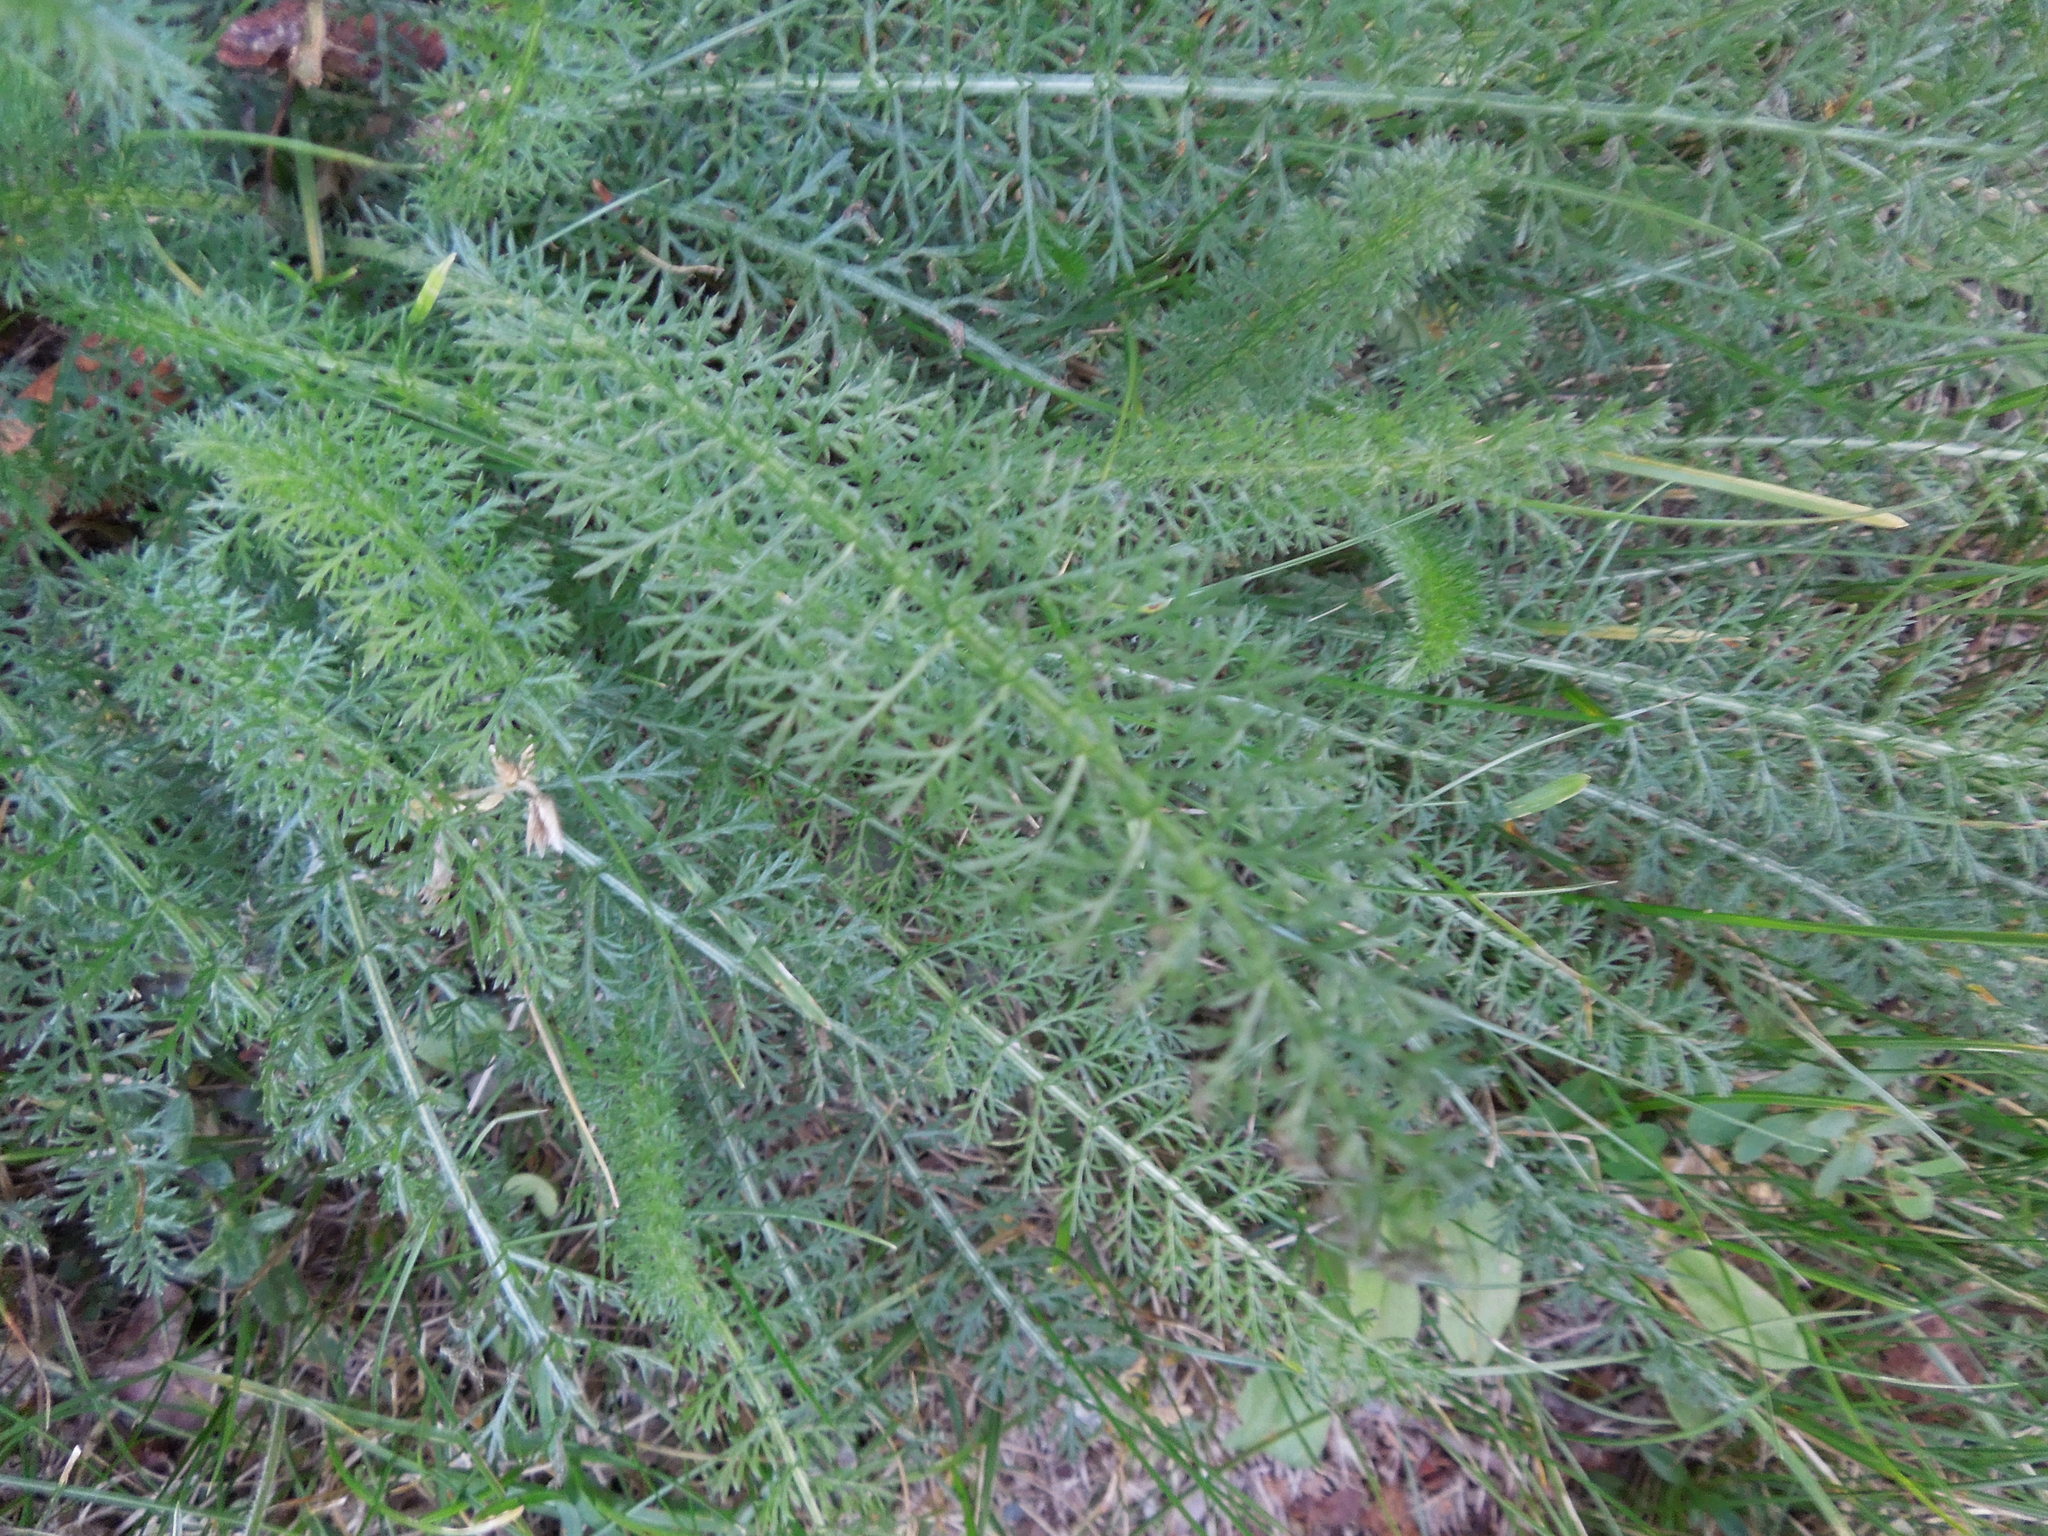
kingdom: Plantae
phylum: Tracheophyta
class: Magnoliopsida
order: Asterales
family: Asteraceae
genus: Achillea
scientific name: Achillea millefolium
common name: Yarrow
